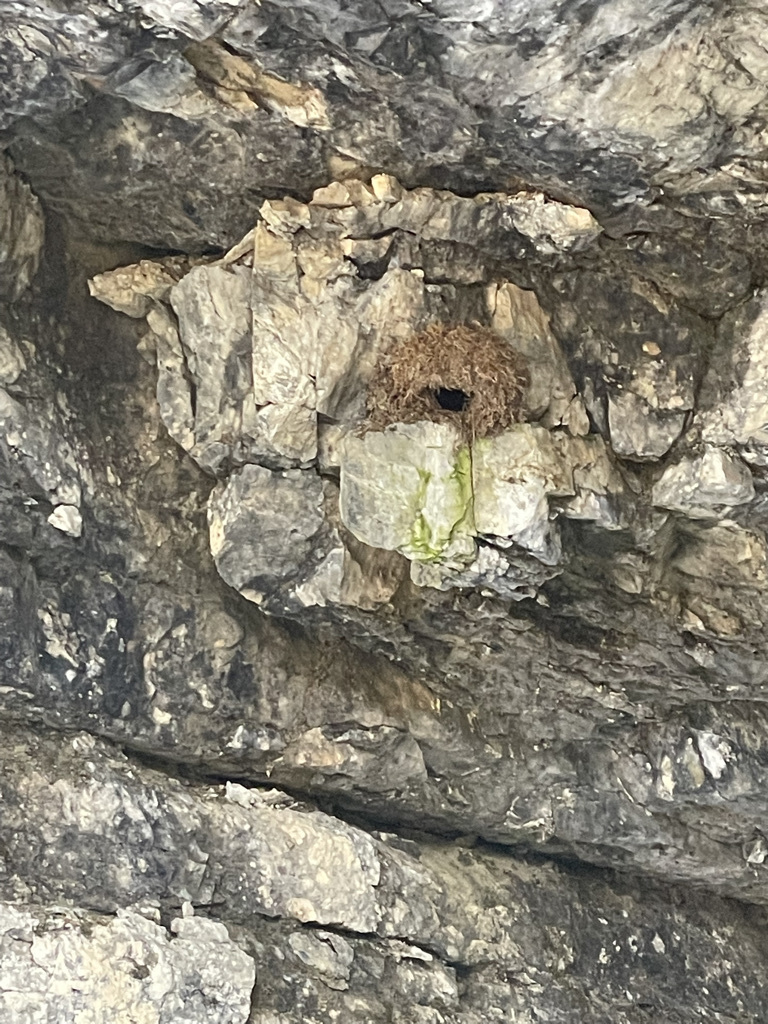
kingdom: Animalia
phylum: Chordata
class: Aves
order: Passeriformes
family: Cinclidae
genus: Cinclus
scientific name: Cinclus mexicanus
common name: American dipper
